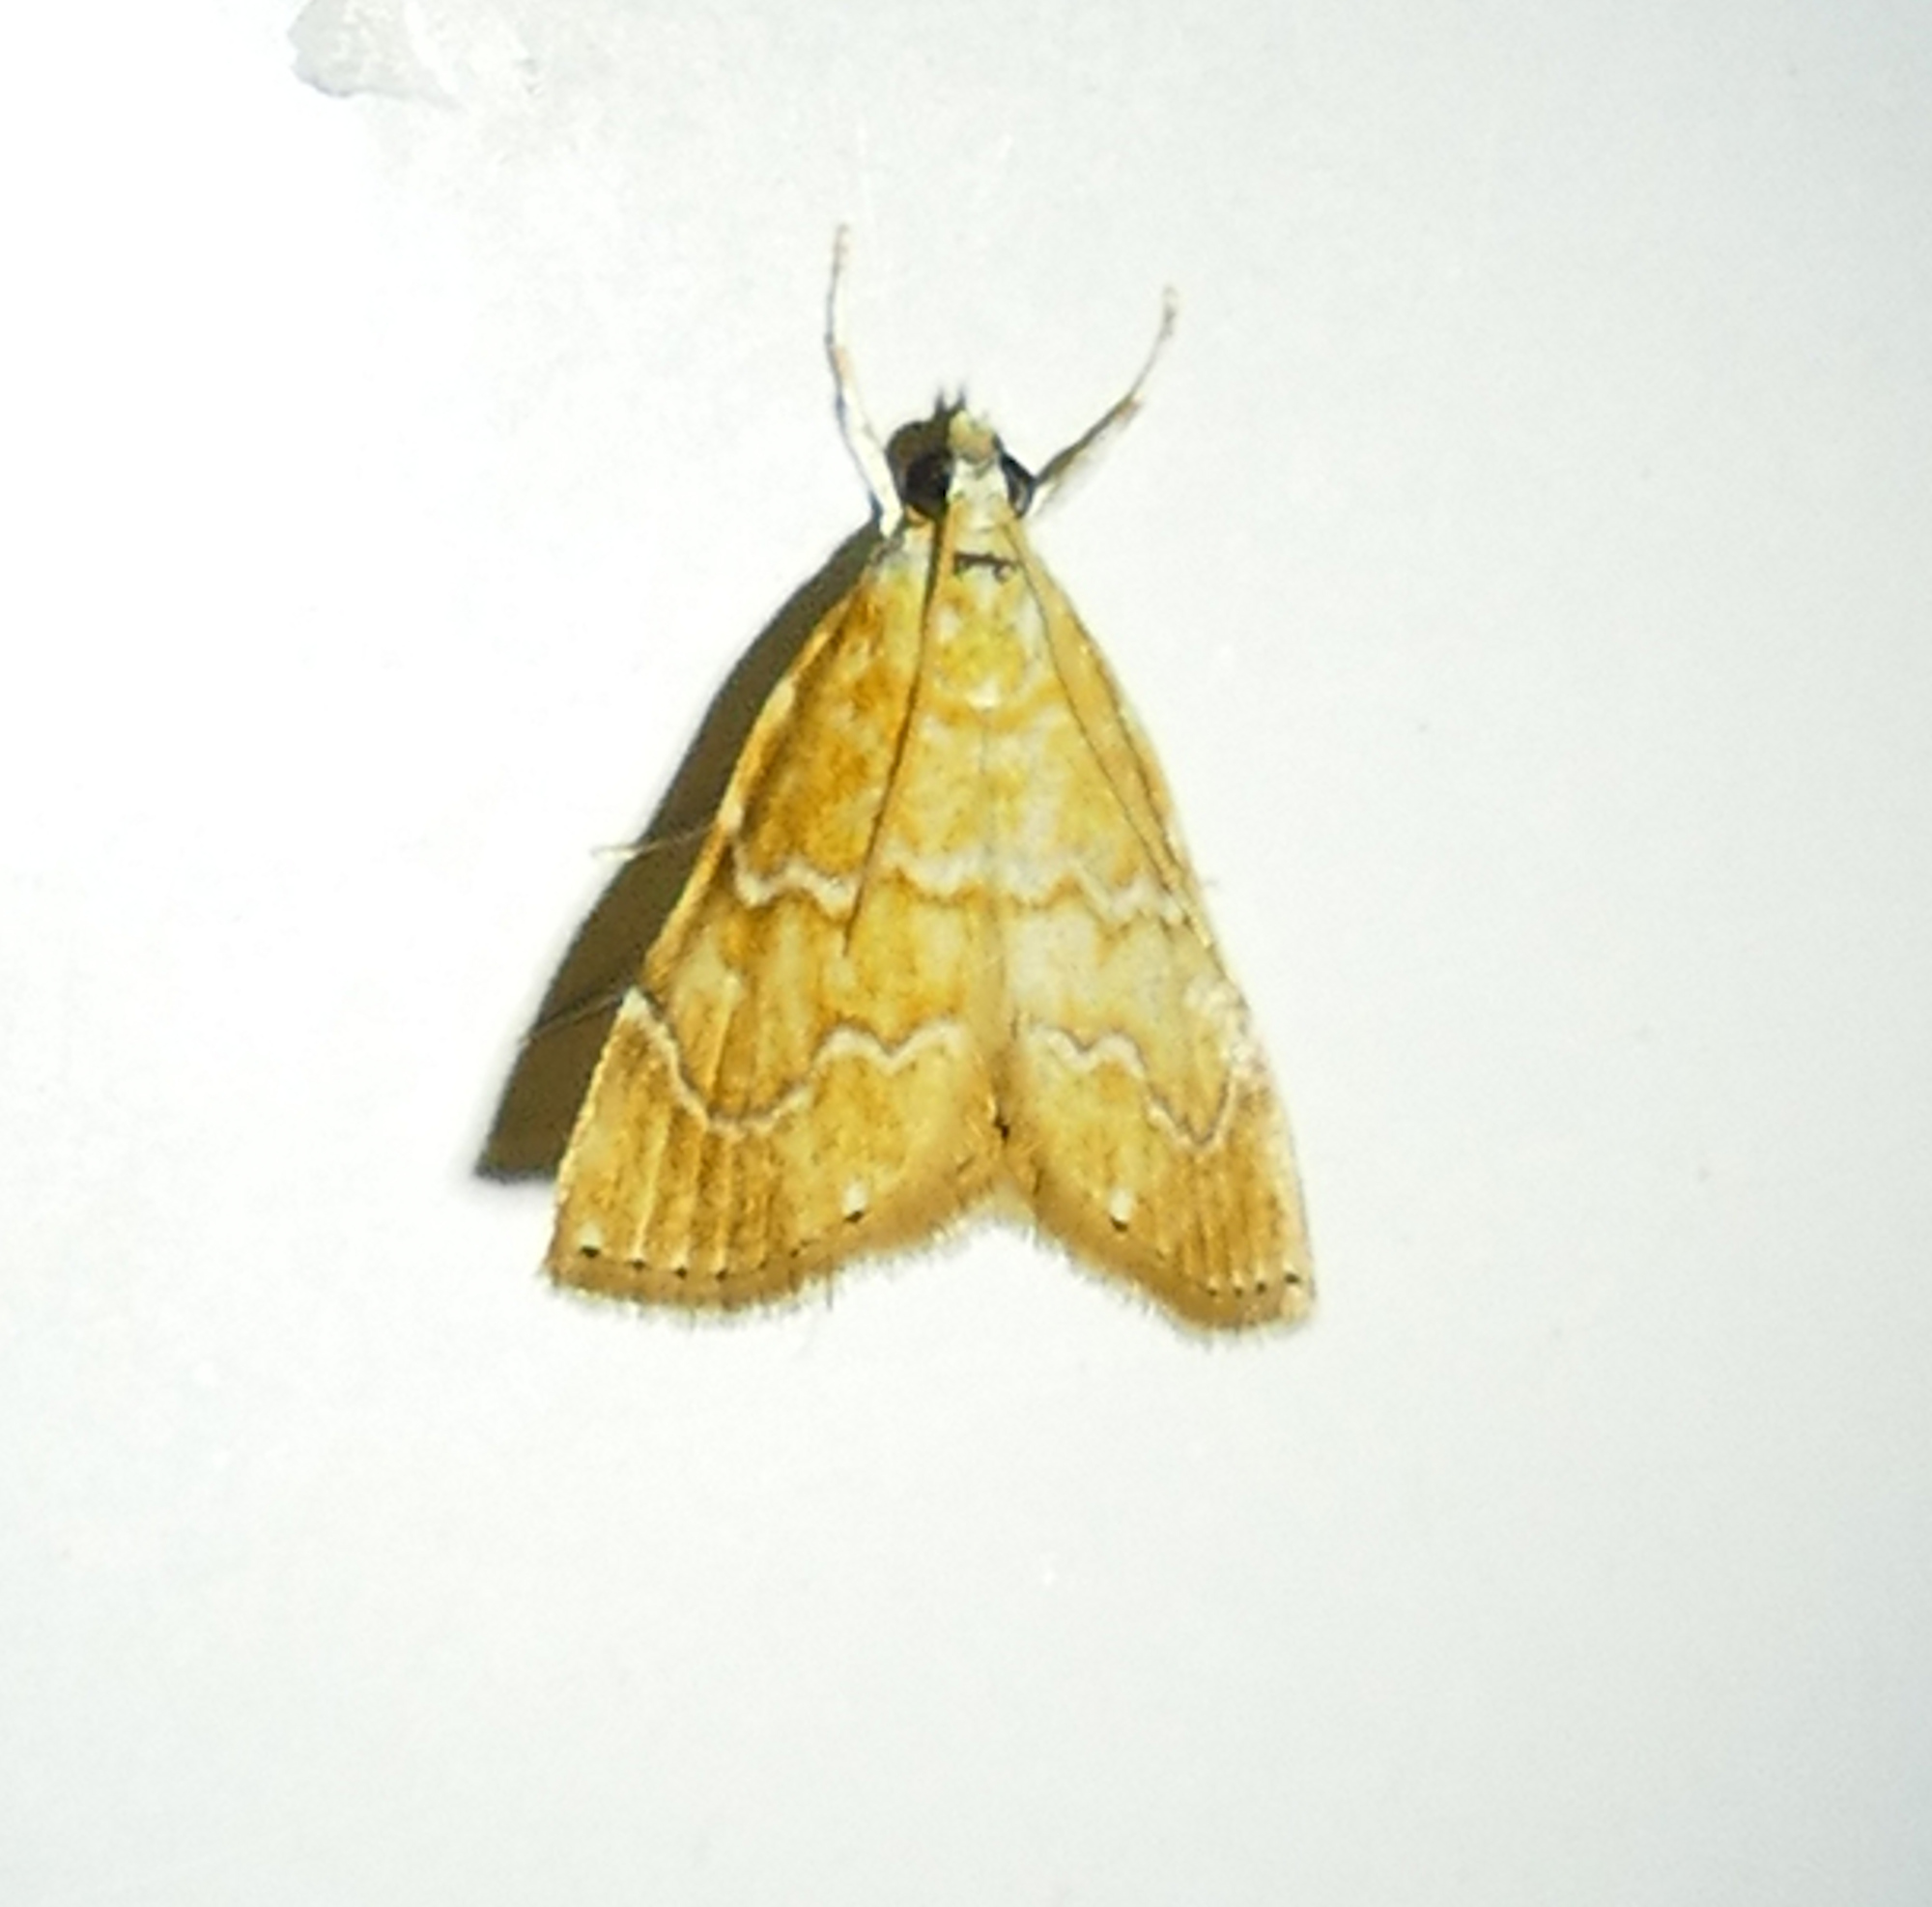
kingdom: Animalia
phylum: Arthropoda
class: Insecta
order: Lepidoptera
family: Crambidae
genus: Glaphyria
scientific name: Glaphyria sesquistrialis
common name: White-roped glaphyria
